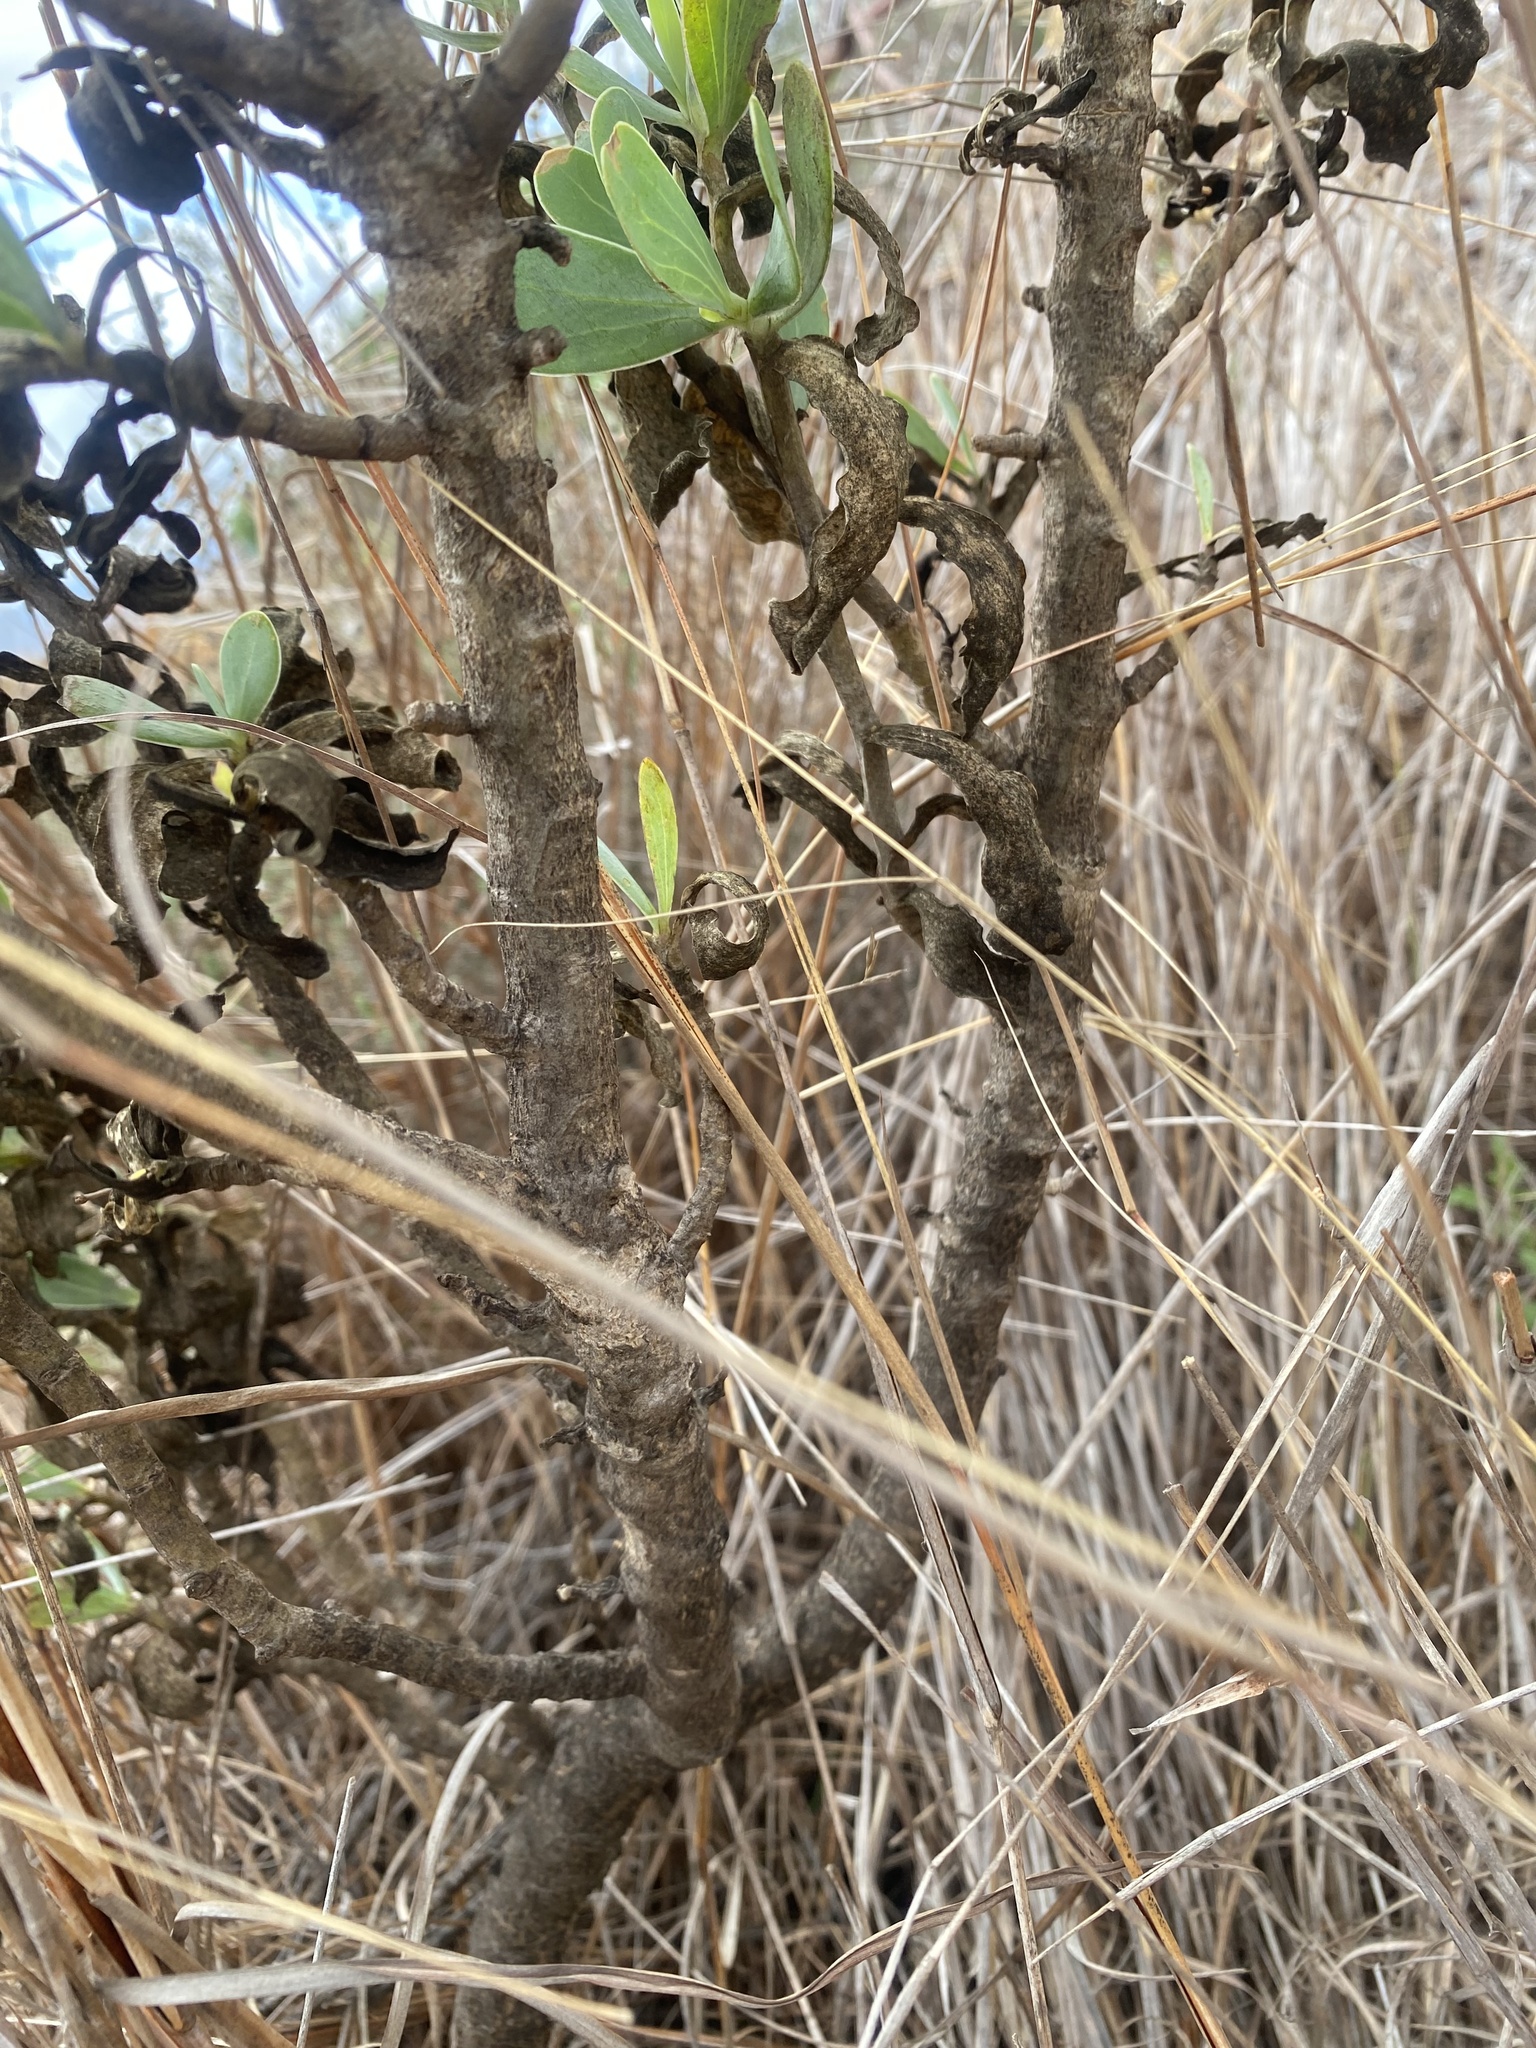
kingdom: Plantae
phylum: Tracheophyta
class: Magnoliopsida
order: Asterales
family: Asteraceae
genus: Lopholaena
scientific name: Lopholaena coriifolia
